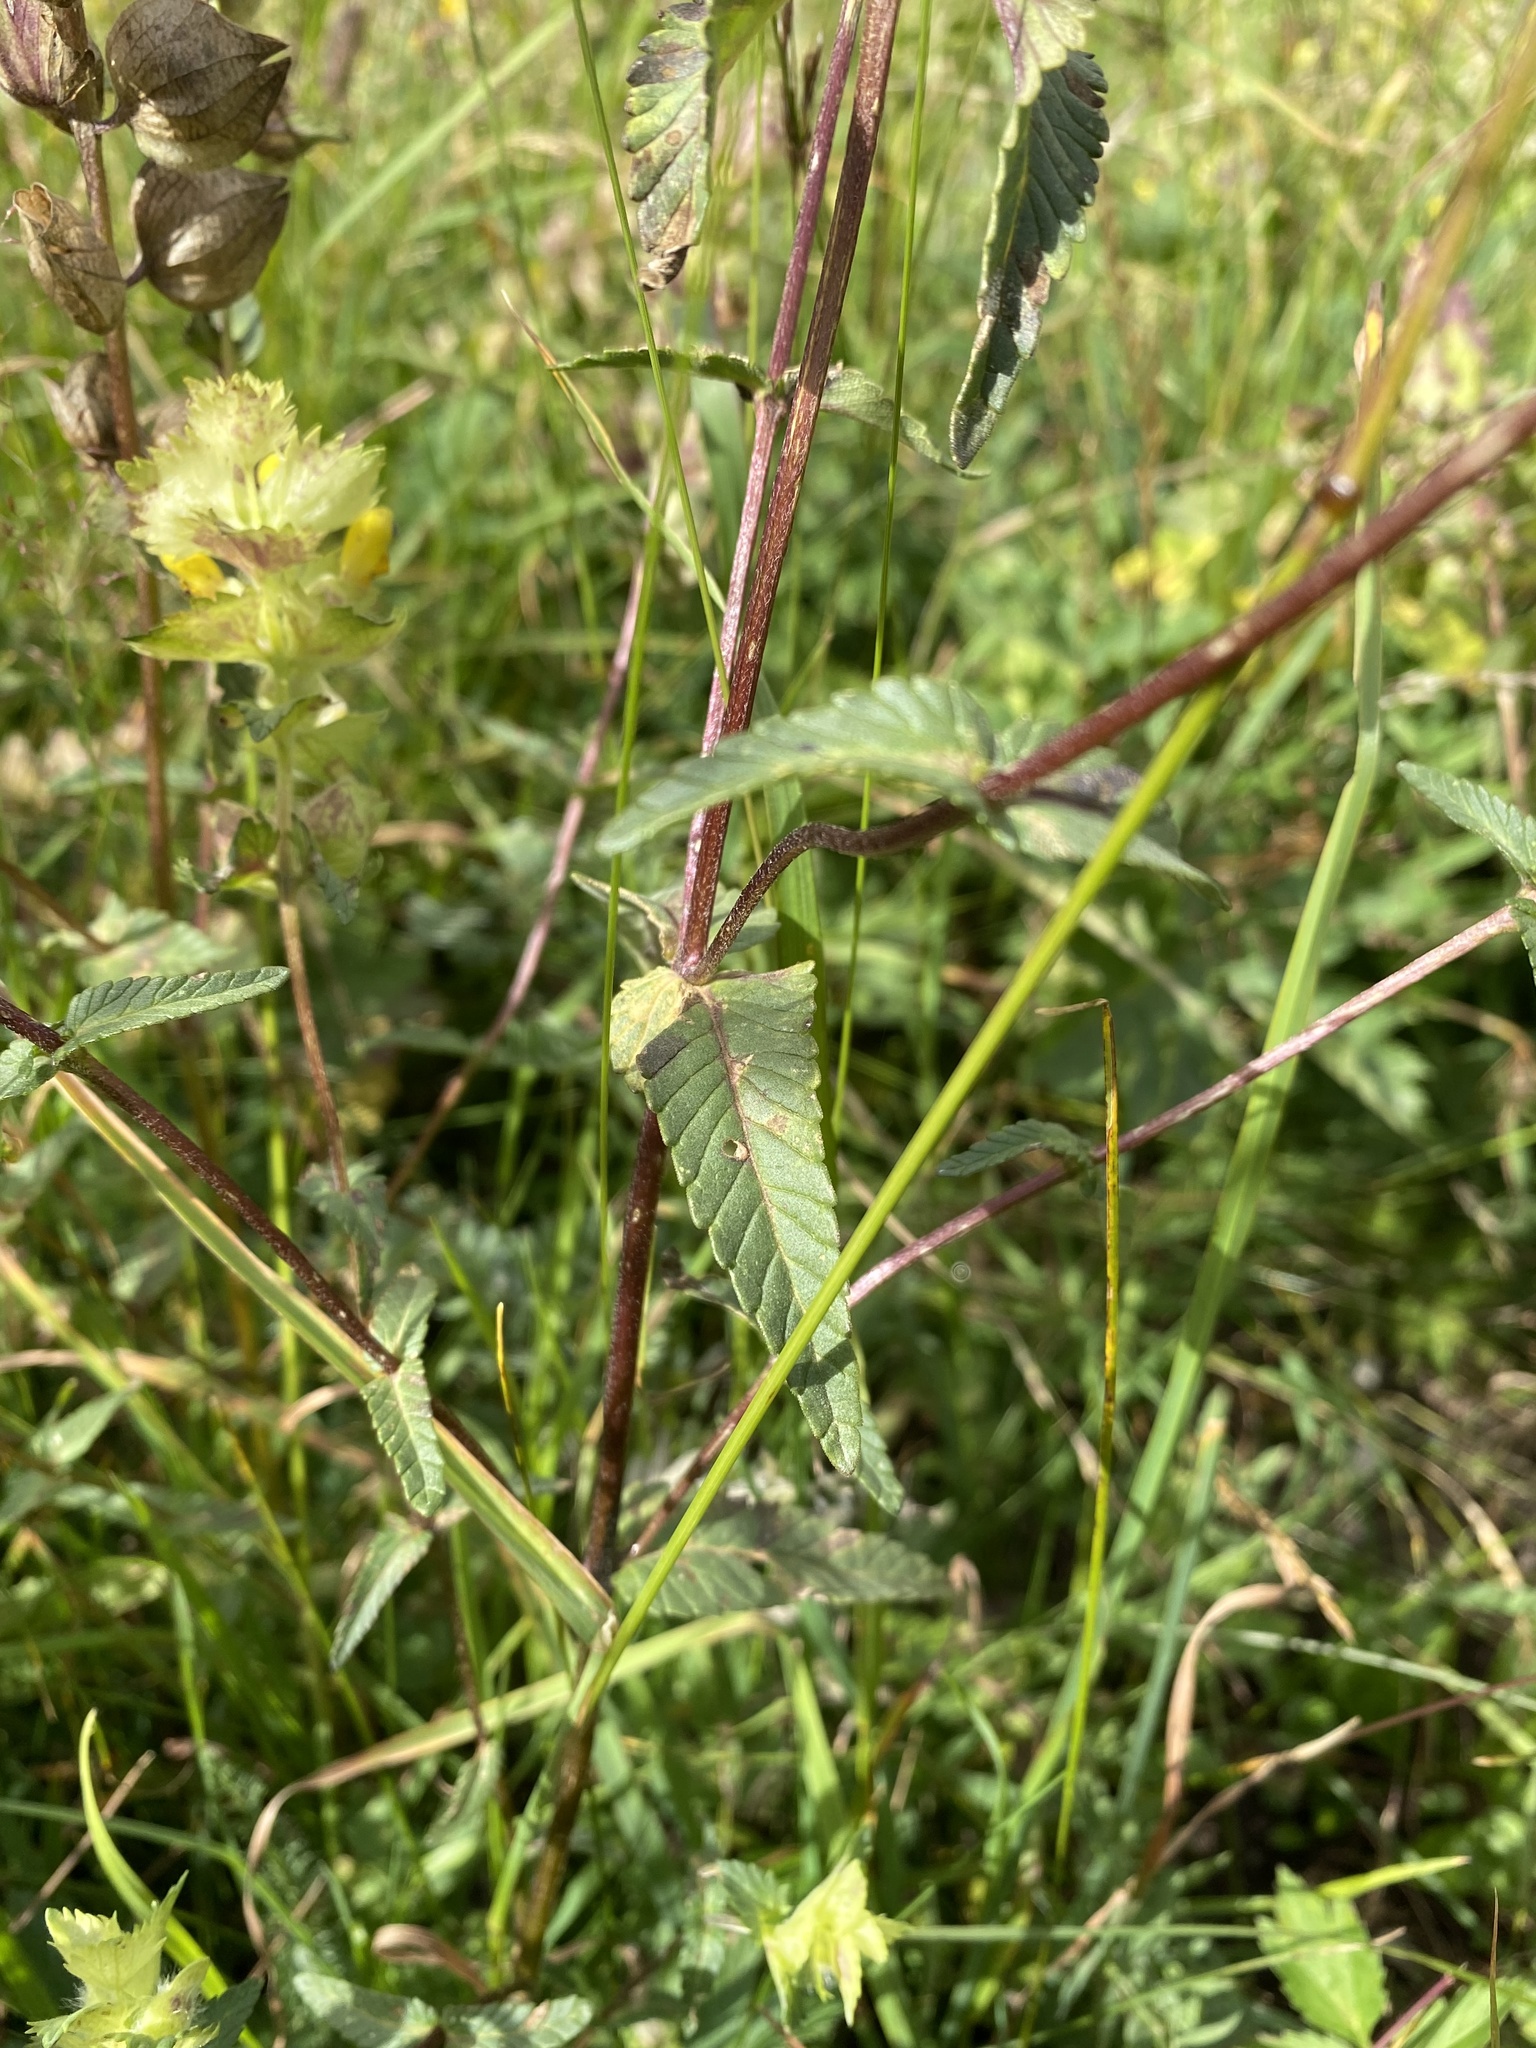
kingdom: Plantae
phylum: Tracheophyta
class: Magnoliopsida
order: Lamiales
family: Orobanchaceae
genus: Rhinanthus
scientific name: Rhinanthus alectorolophus
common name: Greater yellow-rattle
